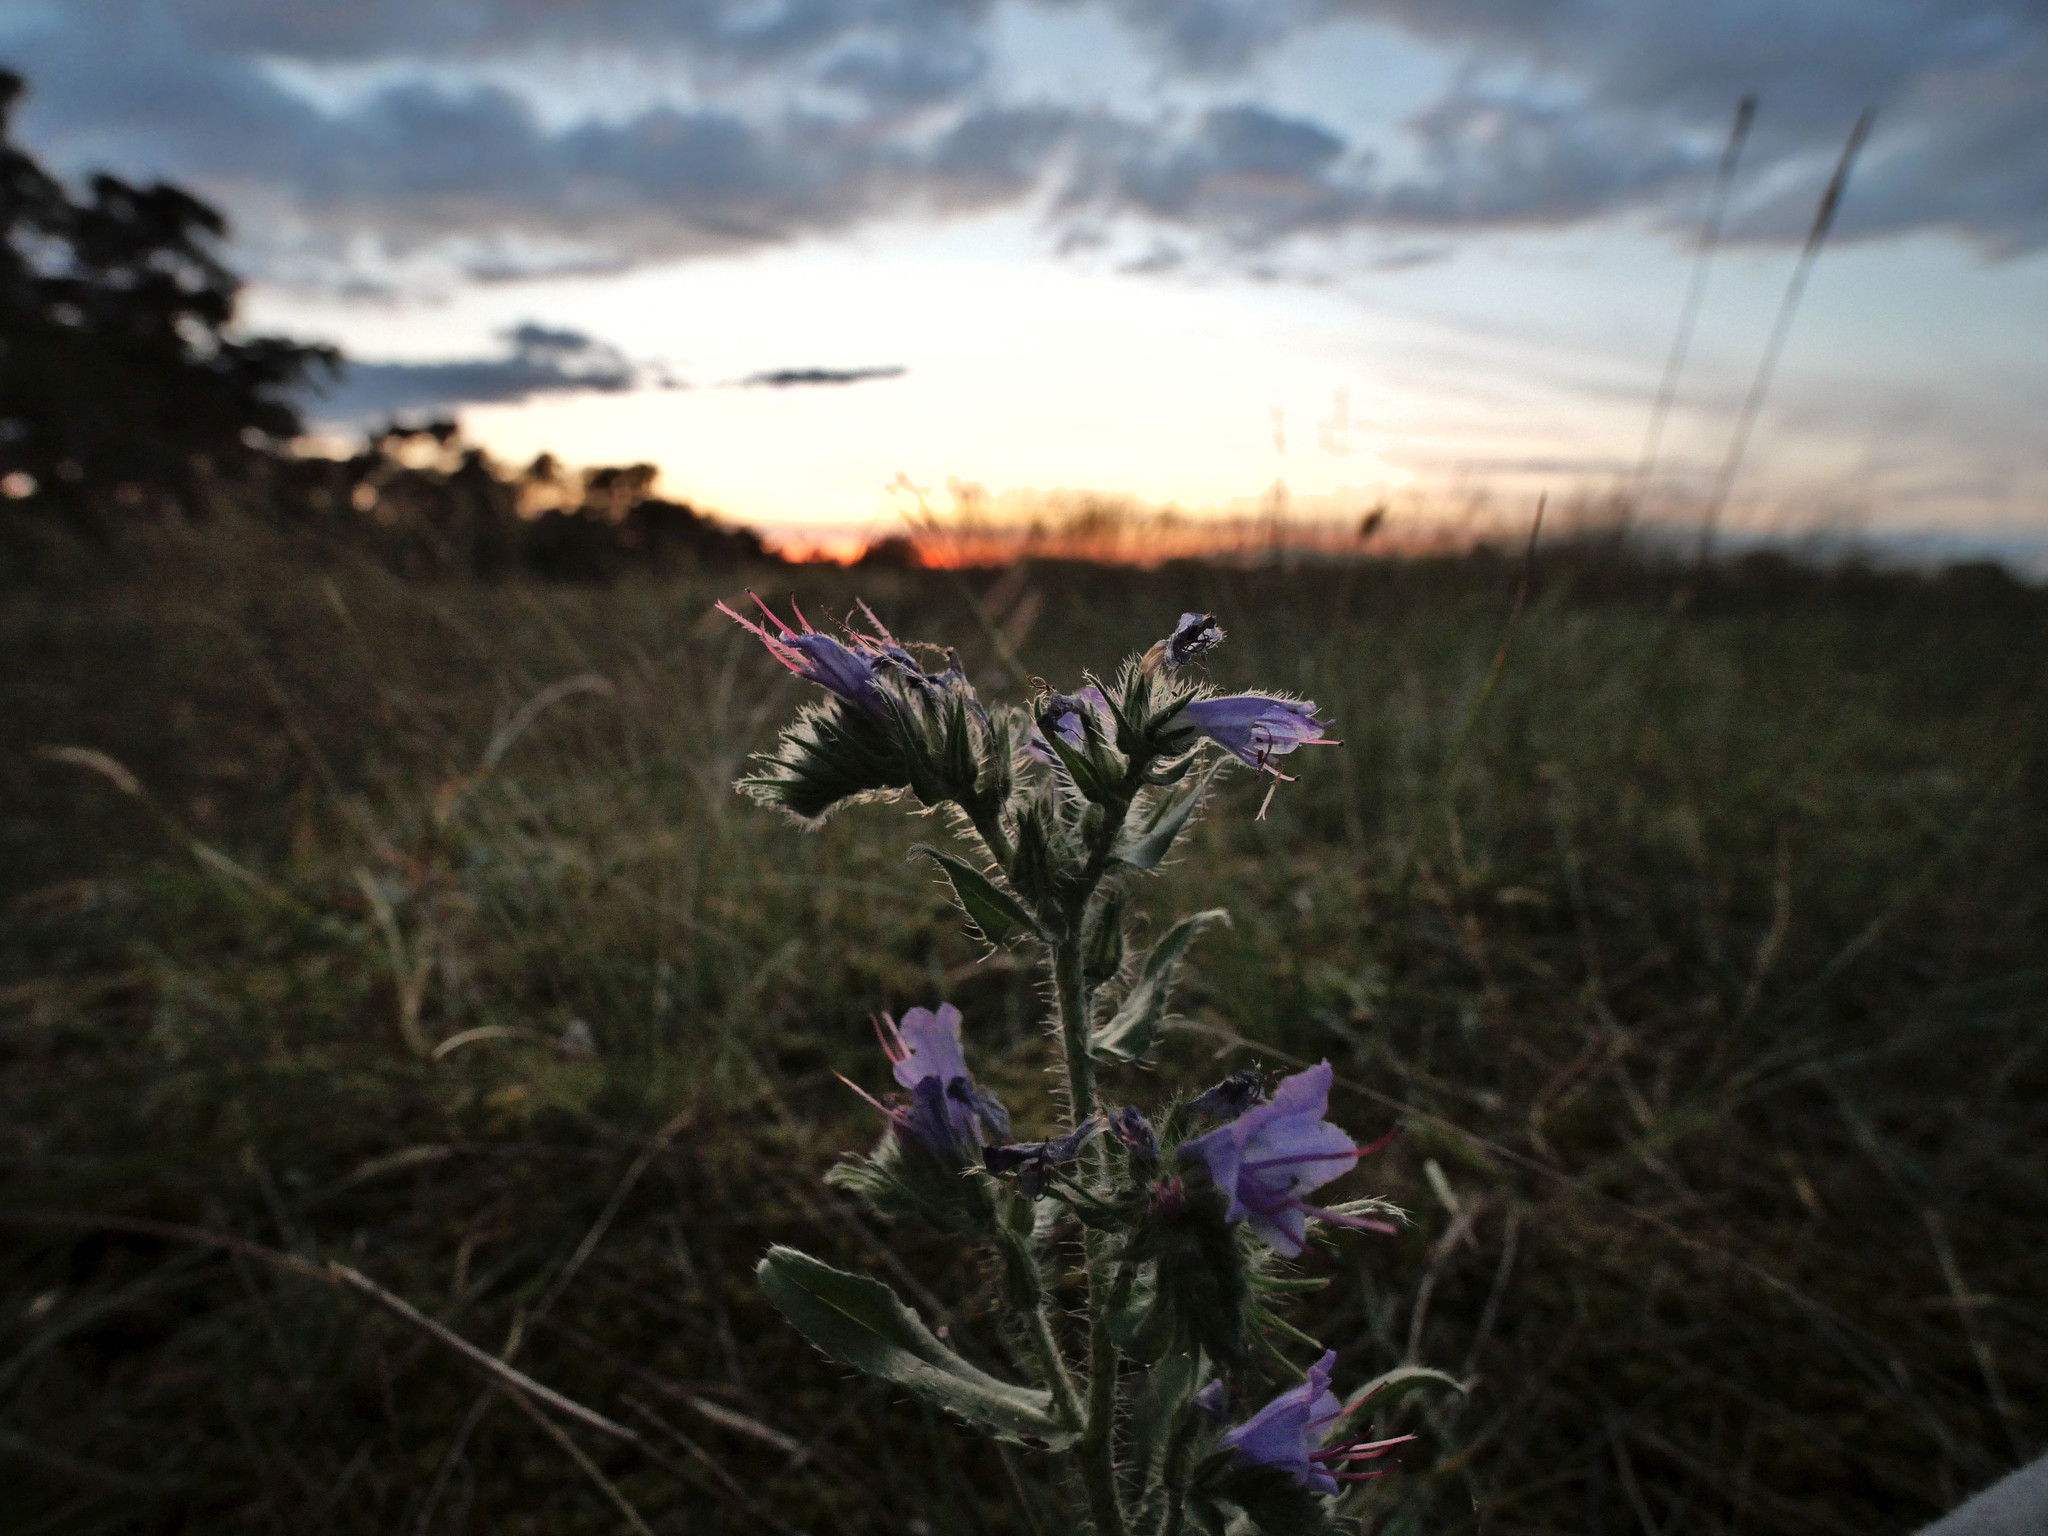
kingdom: Plantae
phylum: Tracheophyta
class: Magnoliopsida
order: Boraginales
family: Boraginaceae
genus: Echium
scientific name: Echium vulgare
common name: Common viper's bugloss
